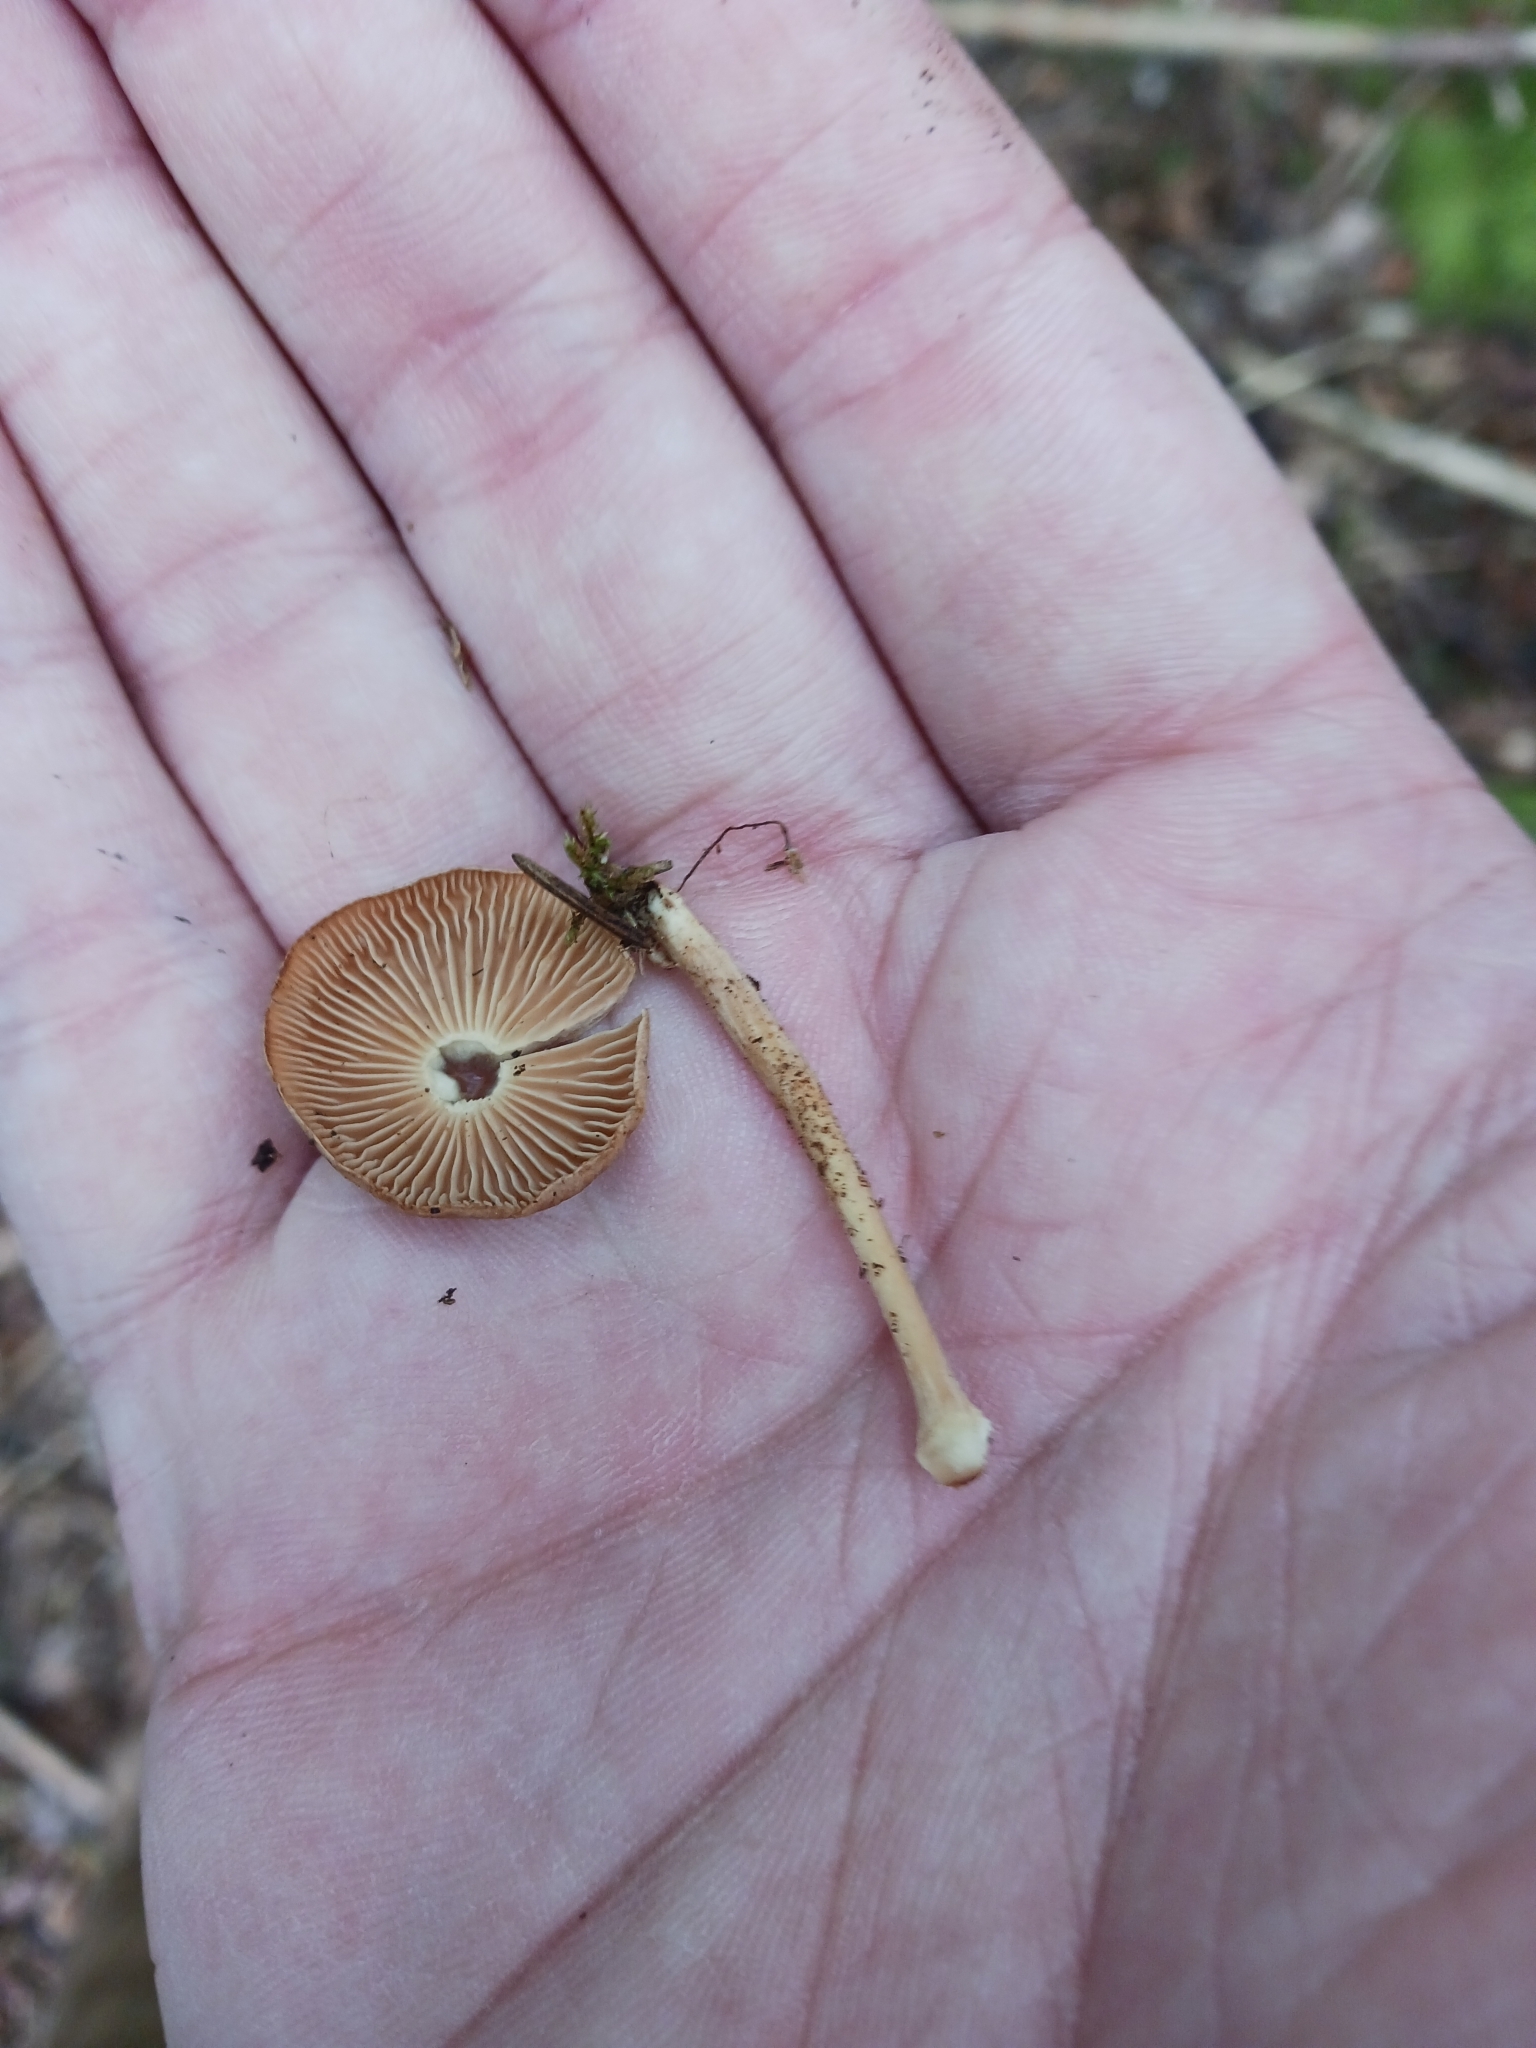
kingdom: Fungi
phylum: Basidiomycota
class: Agaricomycetes
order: Agaricales
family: Omphalotaceae
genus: Collybiopsis
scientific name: Collybiopsis peronata
